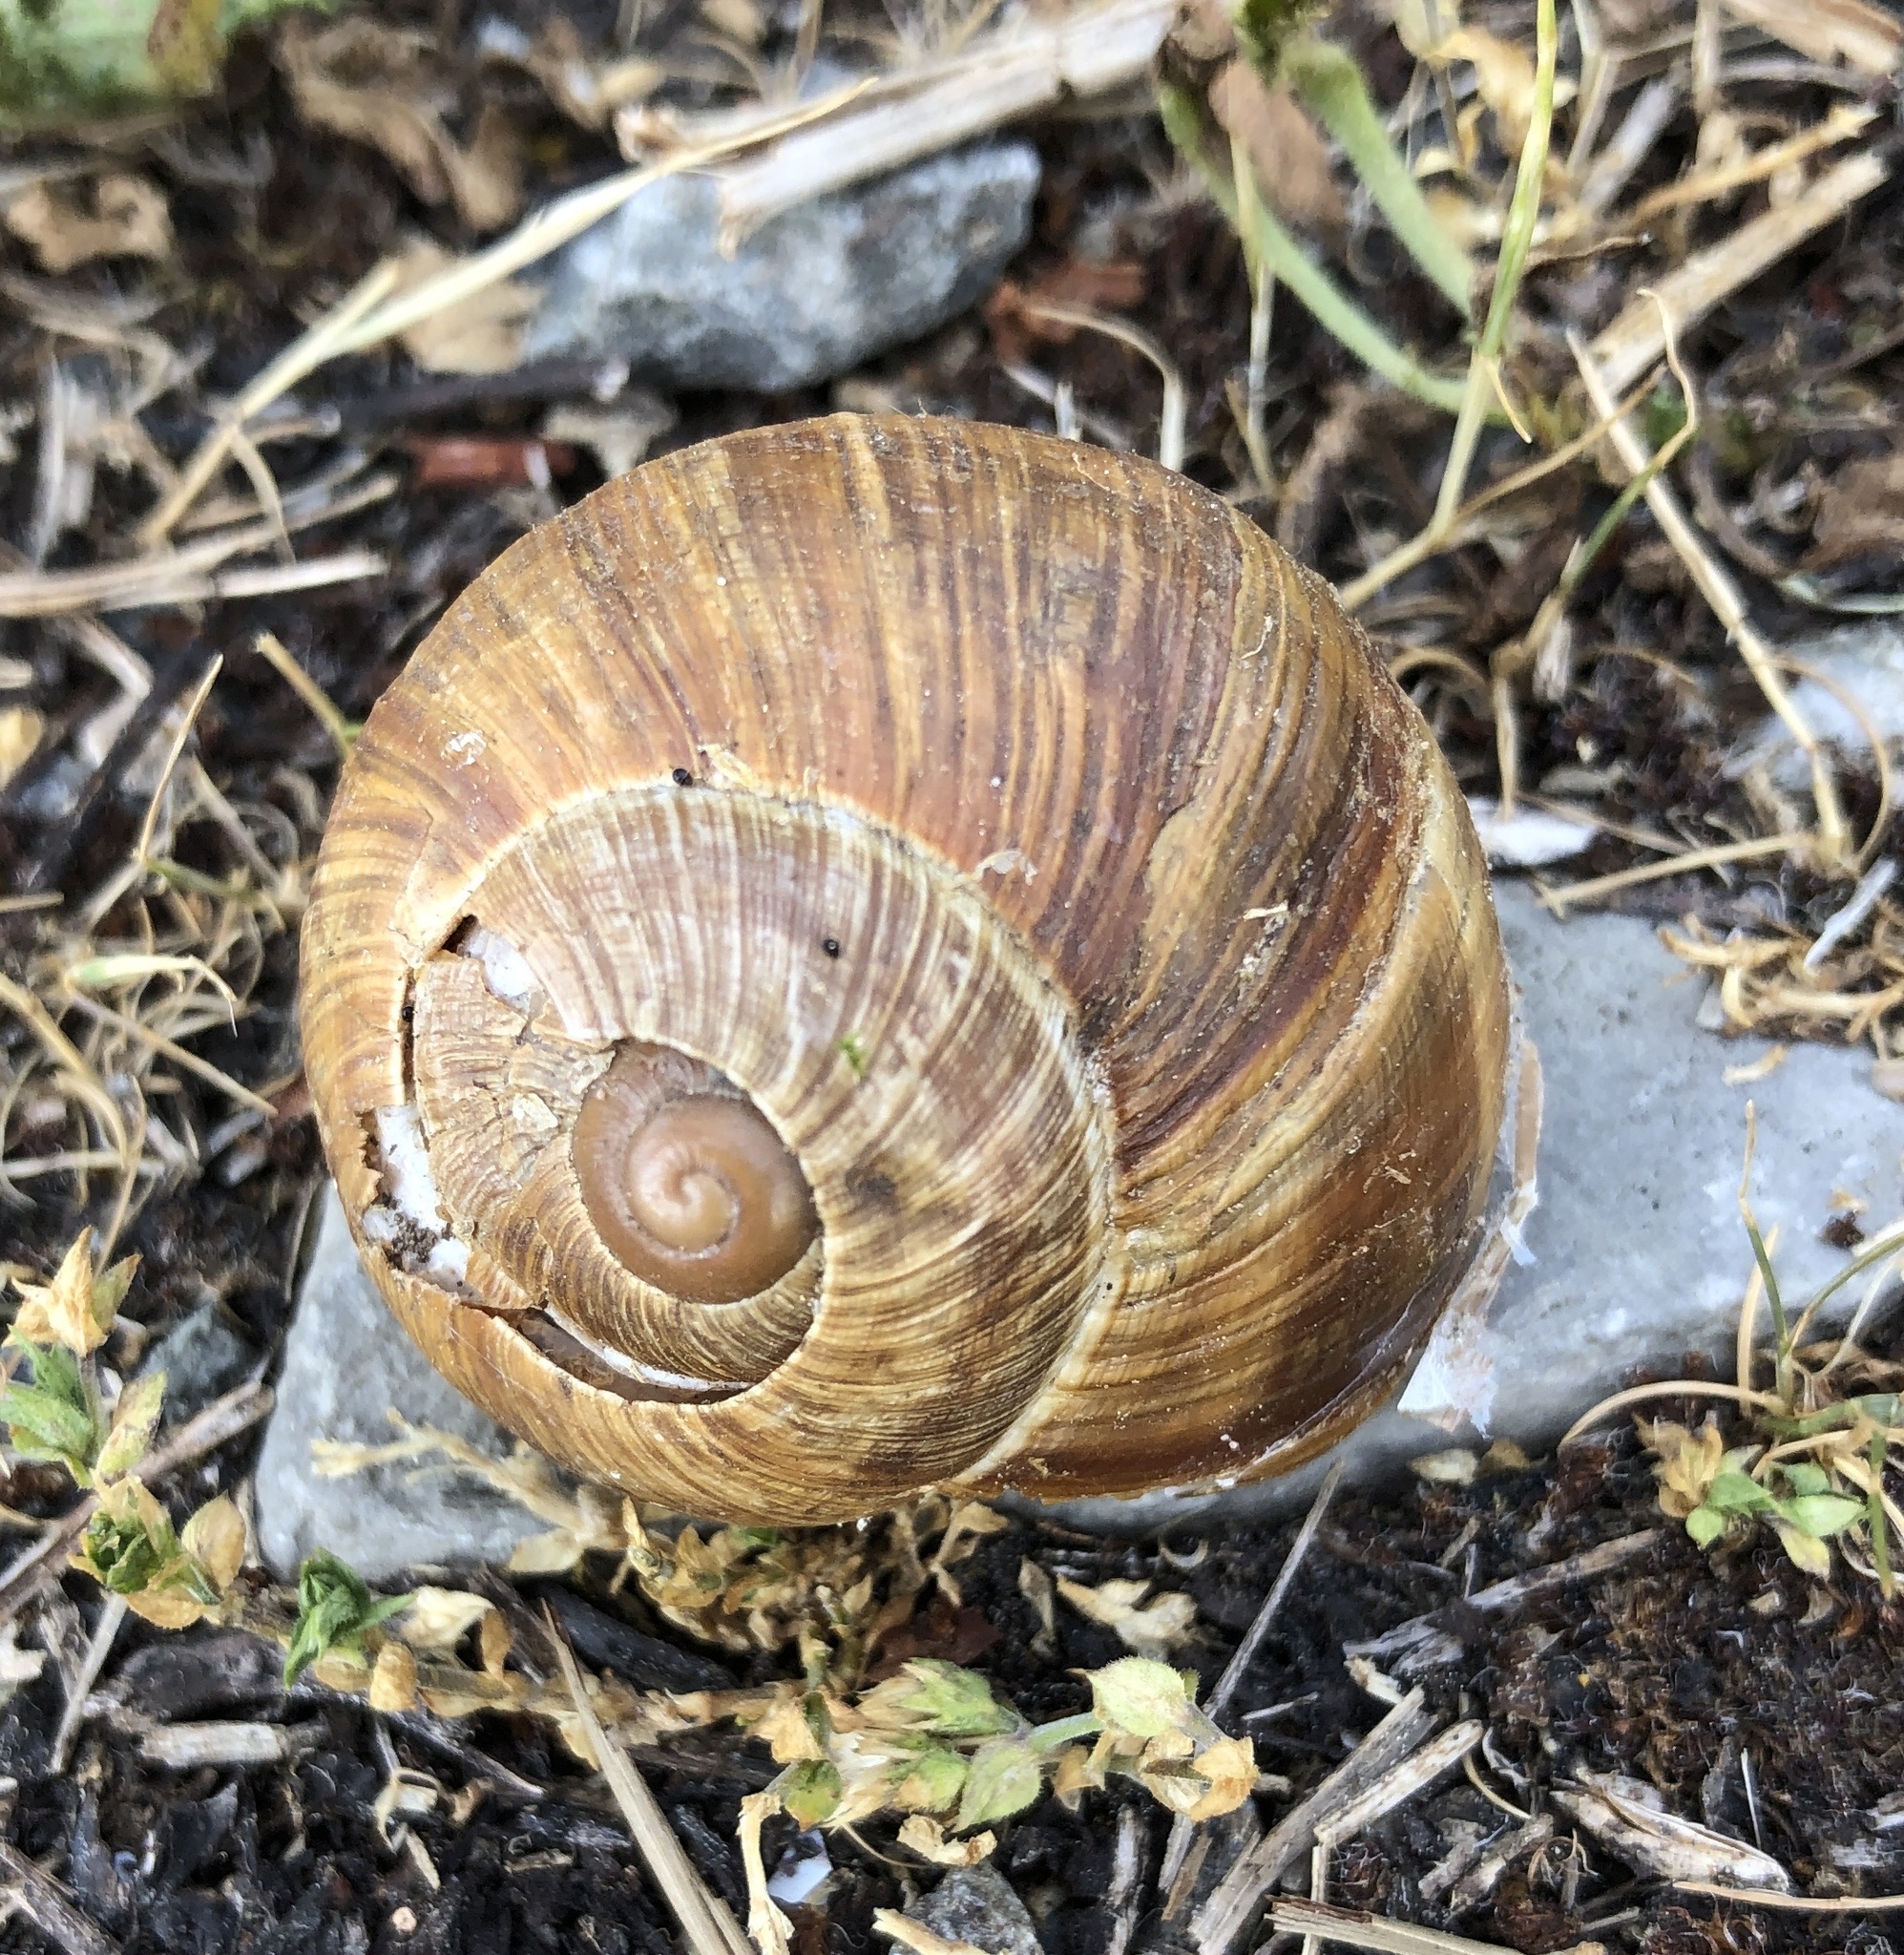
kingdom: Animalia
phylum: Mollusca
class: Gastropoda
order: Stylommatophora
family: Helicidae
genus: Helix
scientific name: Helix pomatia
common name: Roman snail
